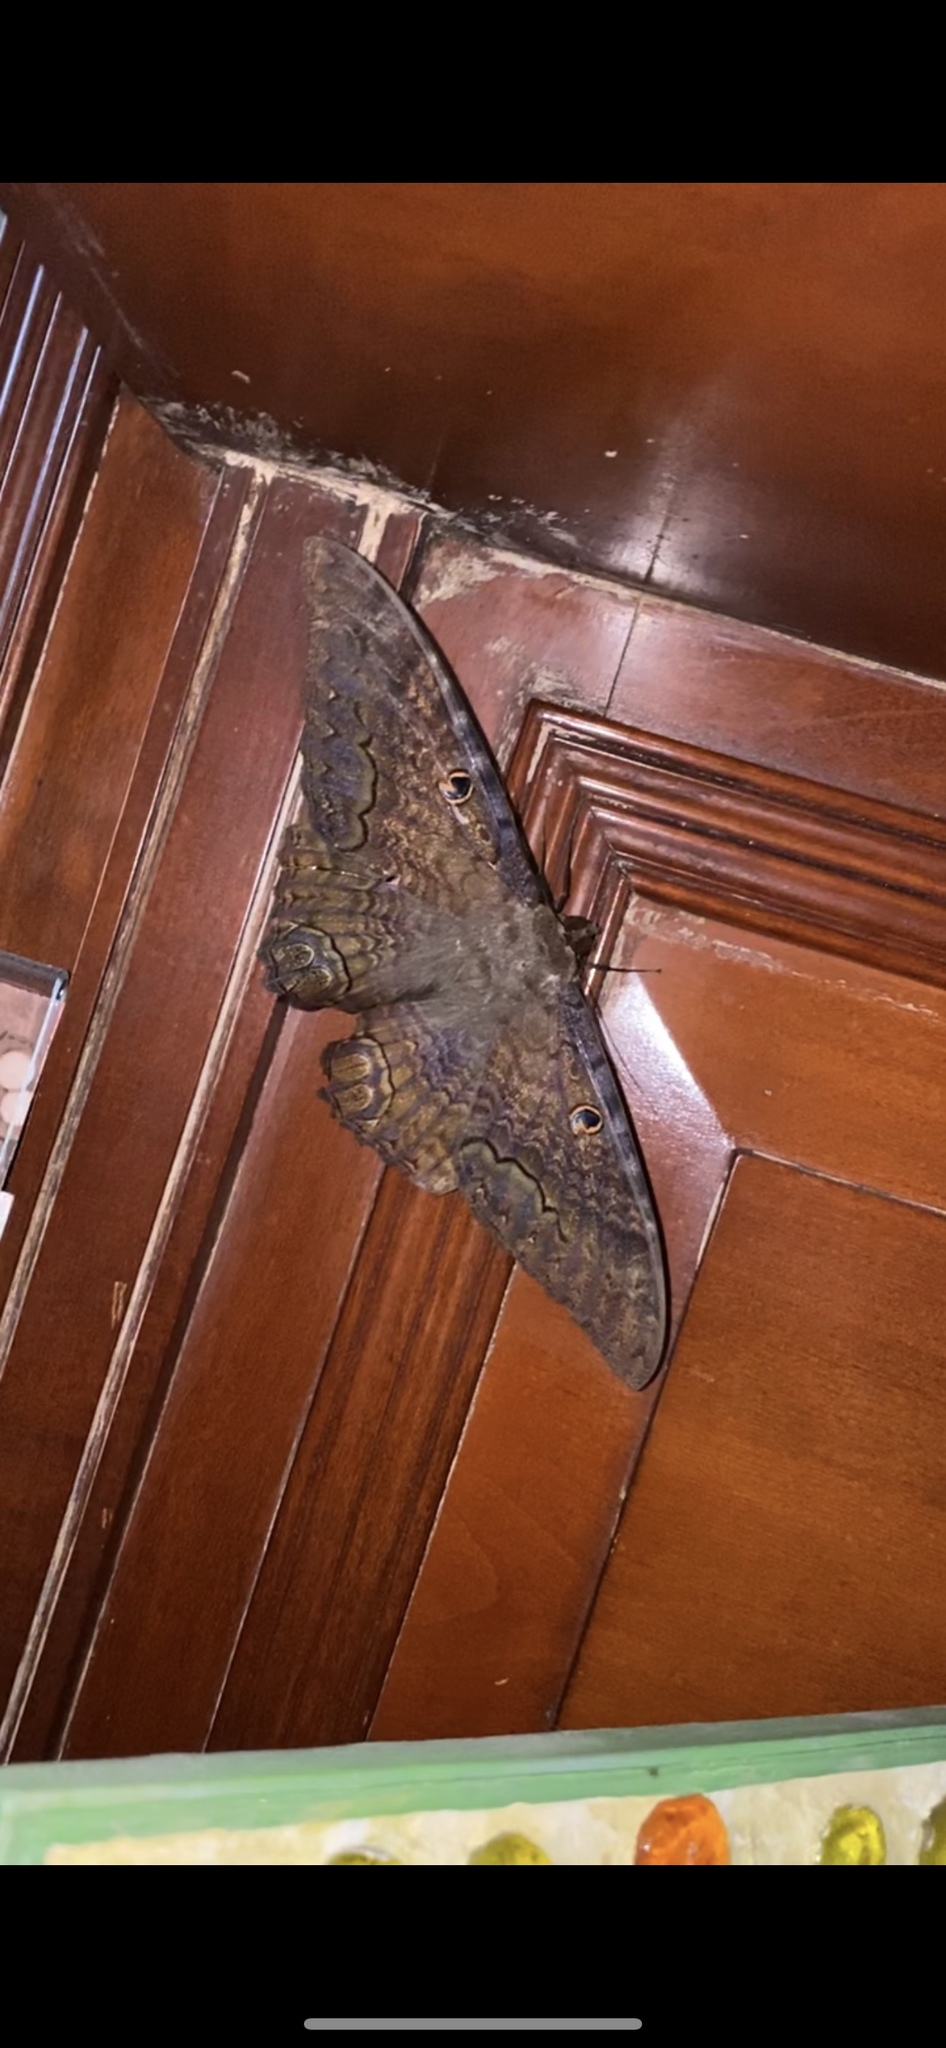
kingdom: Animalia
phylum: Arthropoda
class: Insecta
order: Lepidoptera
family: Erebidae
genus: Ascalapha
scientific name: Ascalapha odorata
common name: Black witch
